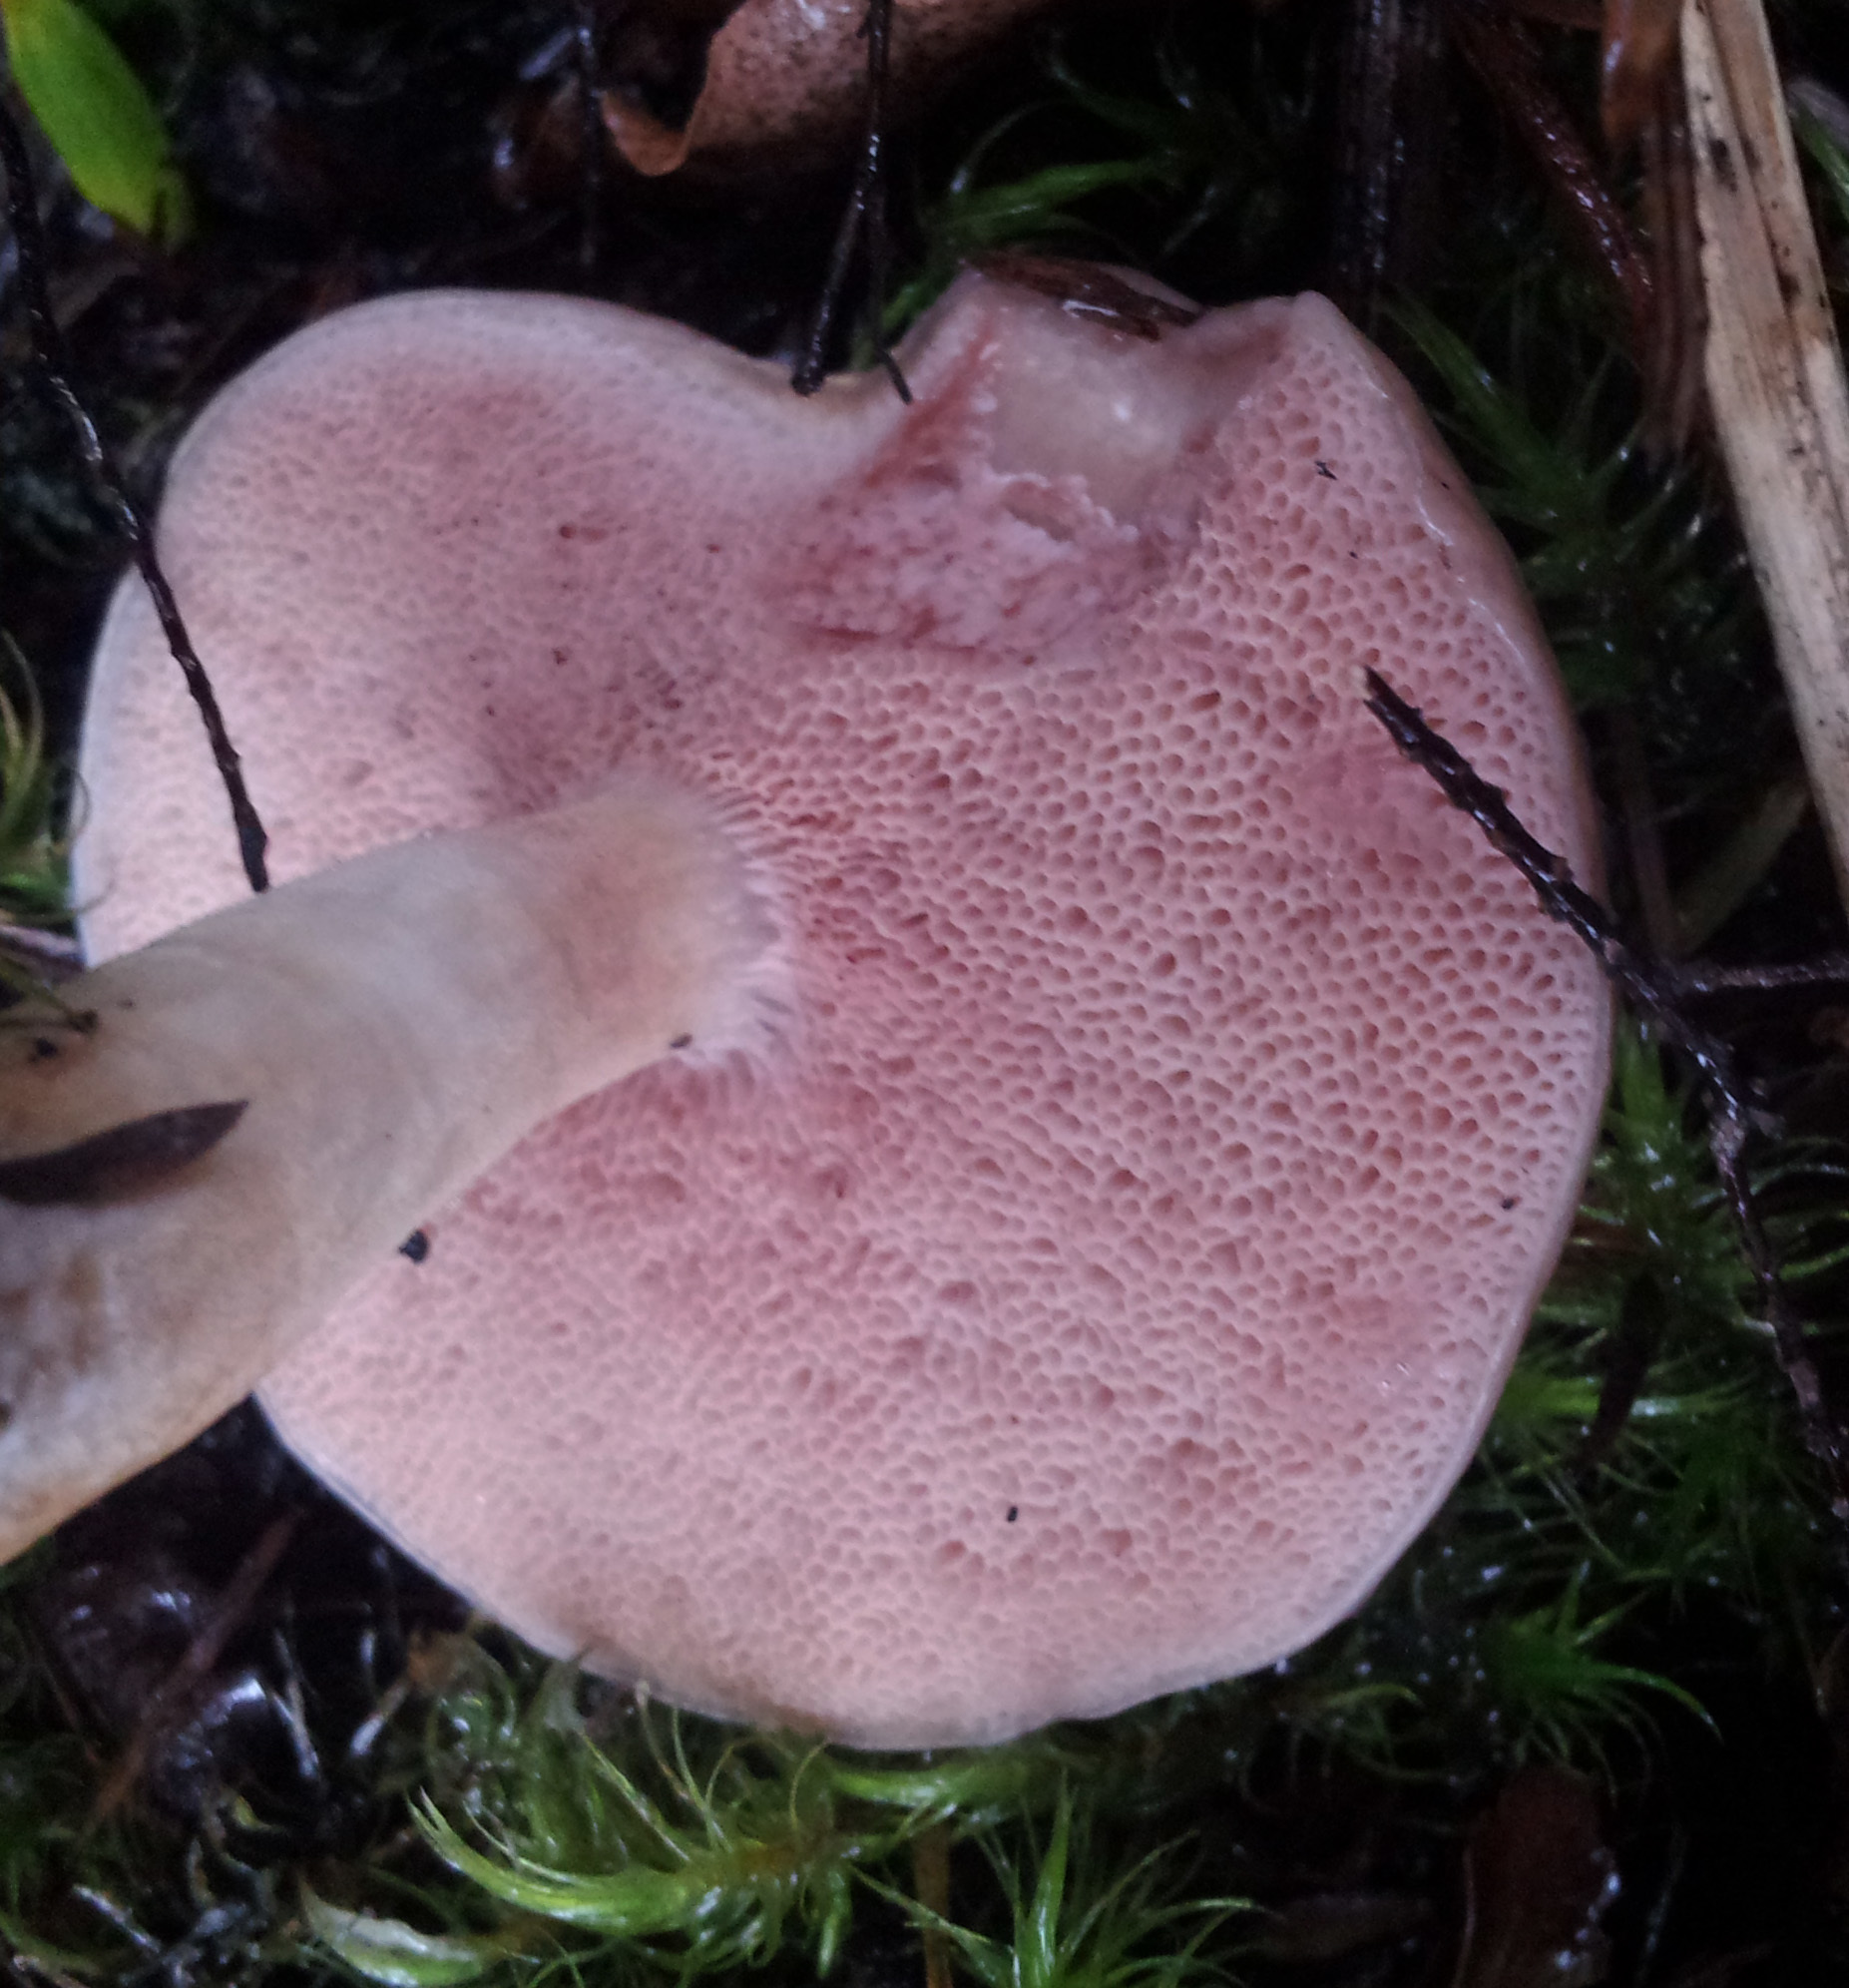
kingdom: Fungi
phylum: Basidiomycota
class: Agaricomycetes
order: Boletales
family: Boletaceae
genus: Fistulinella
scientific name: Fistulinella viscida
